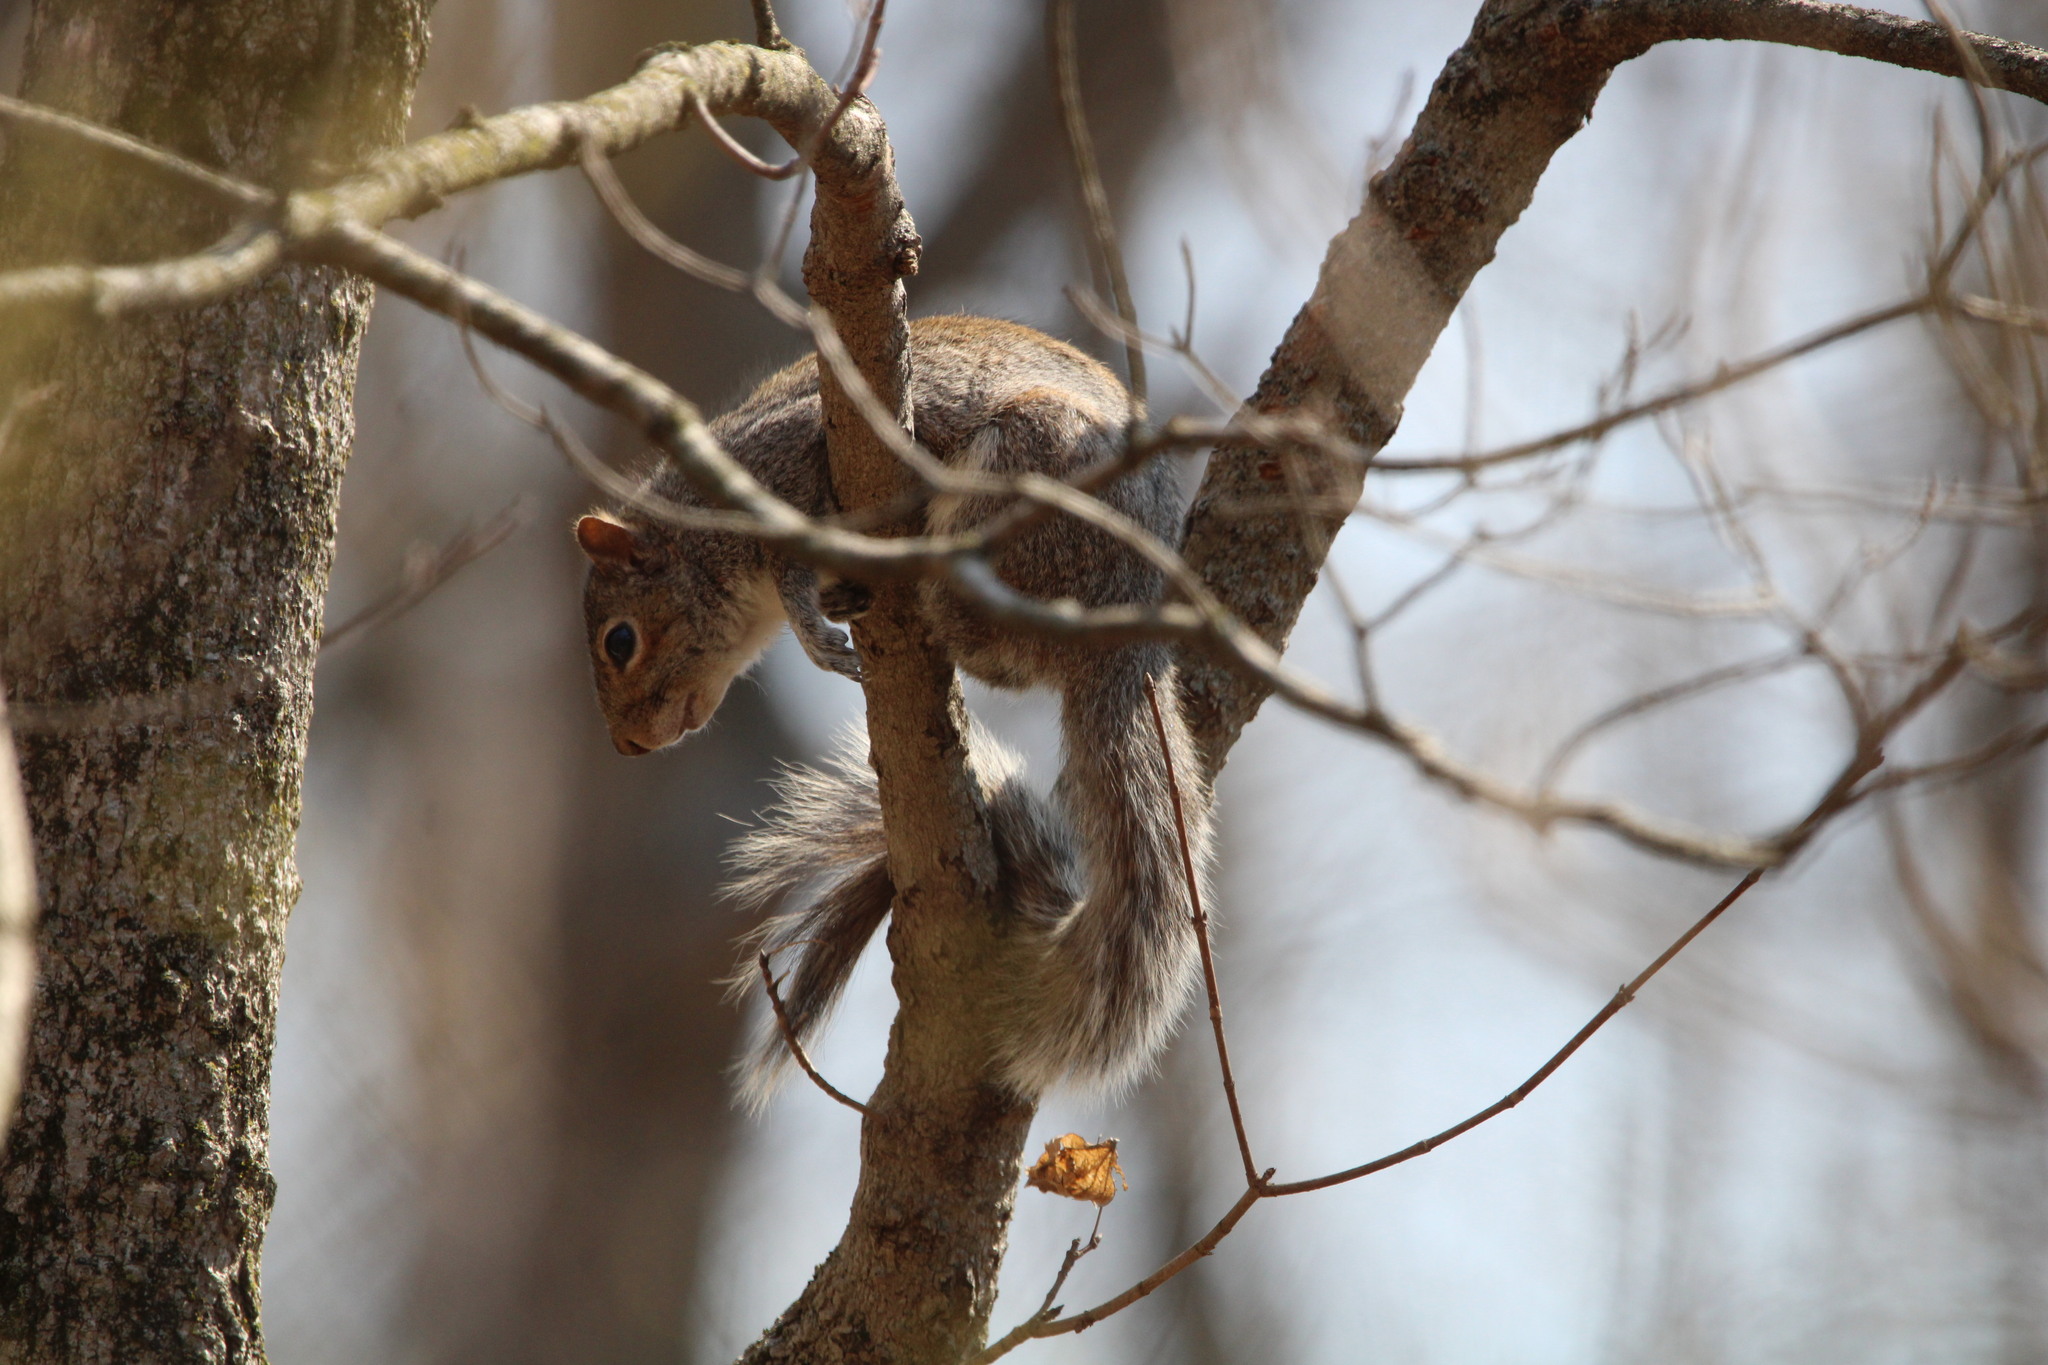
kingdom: Animalia
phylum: Chordata
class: Mammalia
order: Rodentia
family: Sciuridae
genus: Sciurus
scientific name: Sciurus carolinensis
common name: Eastern gray squirrel
